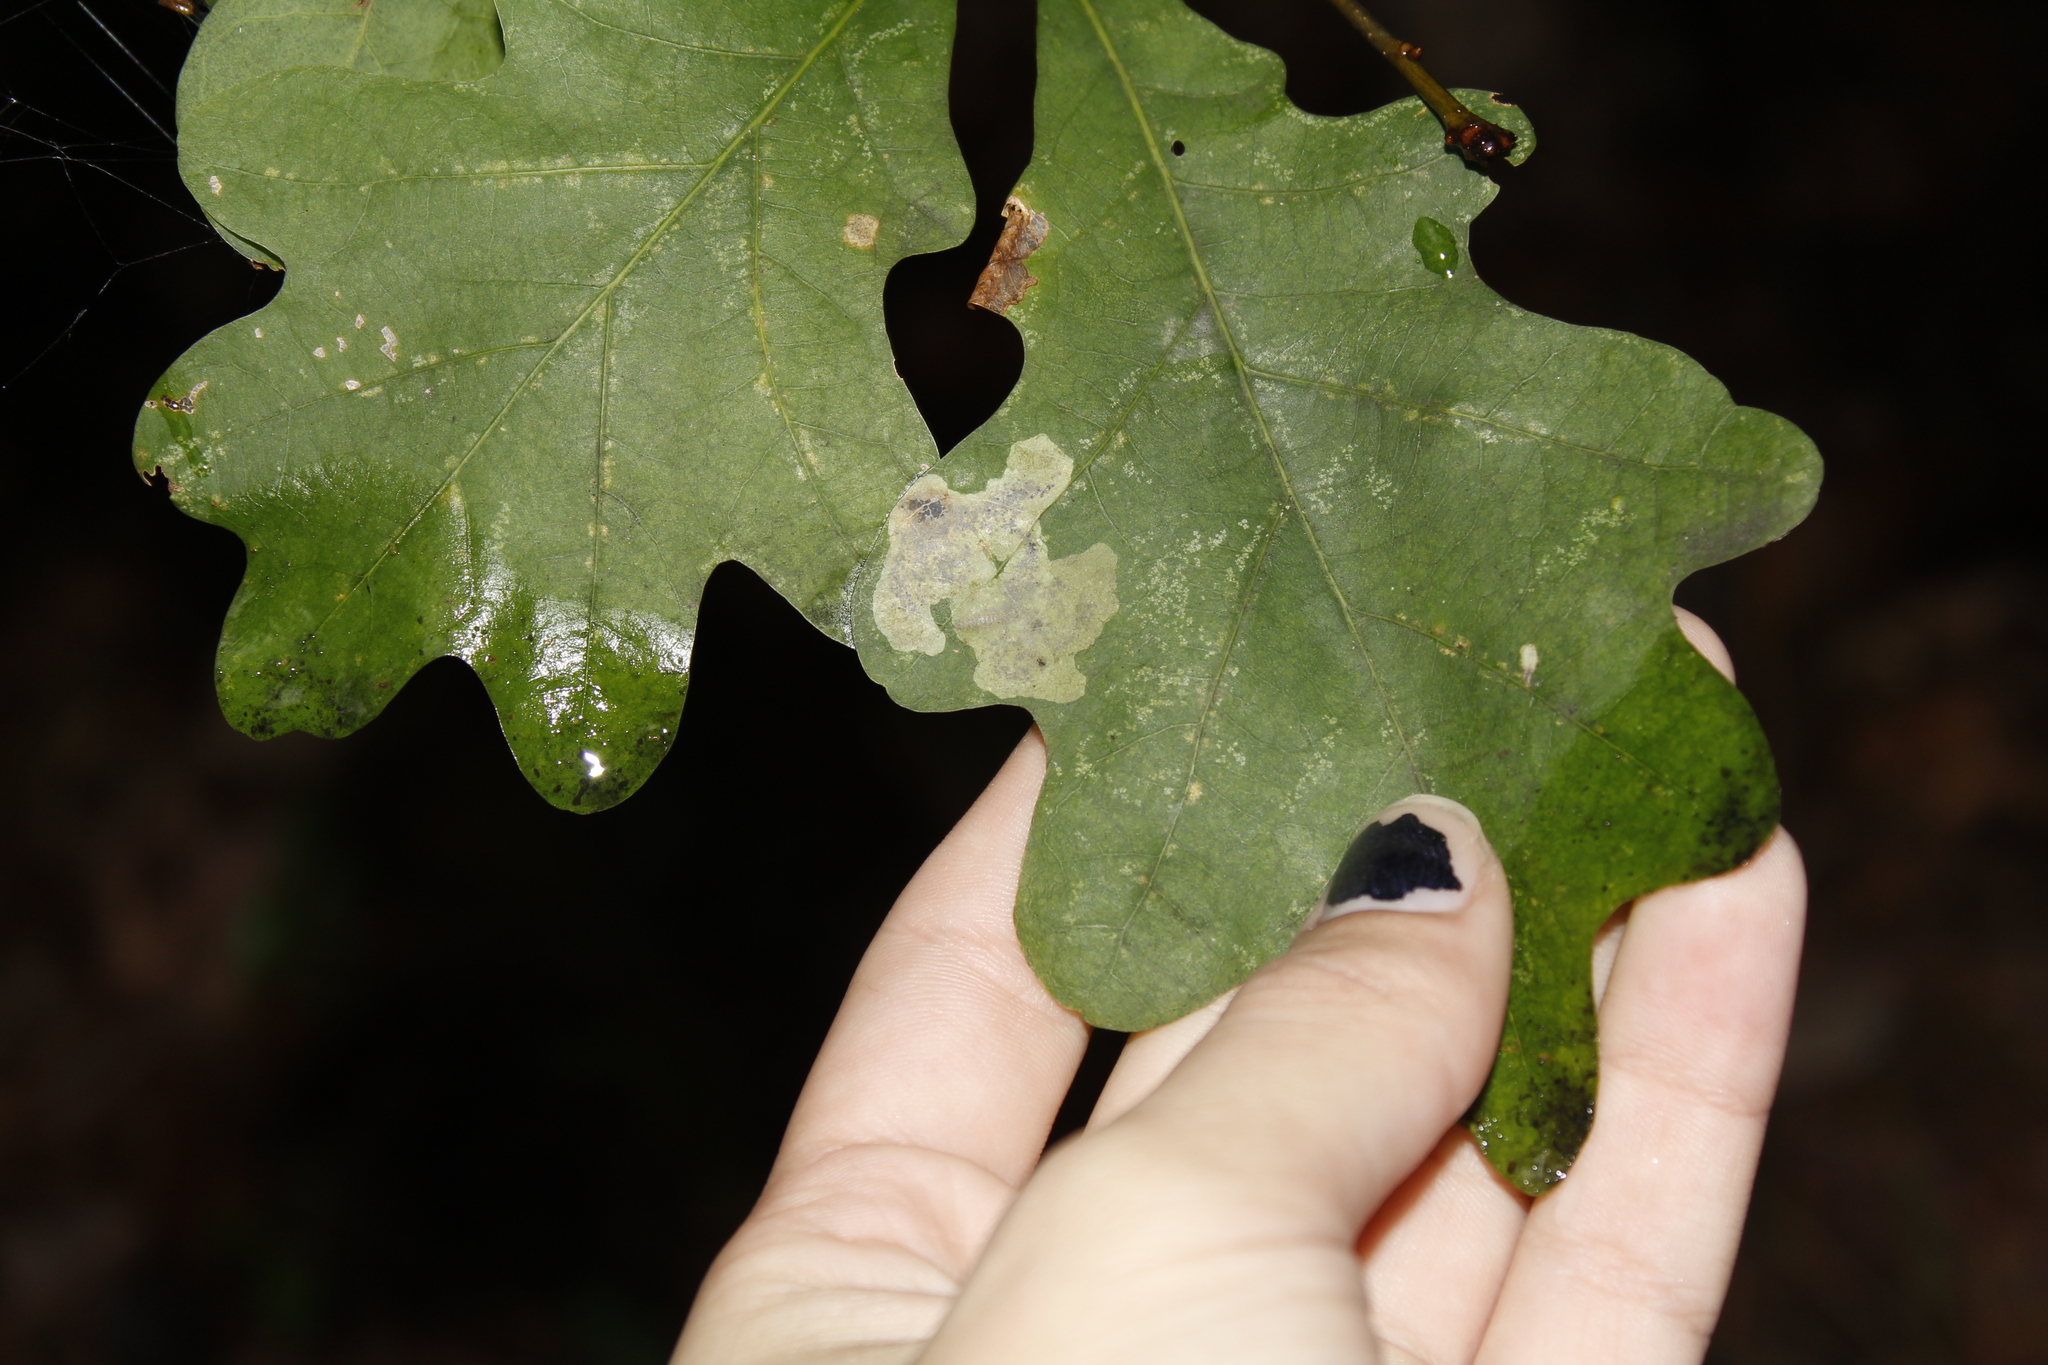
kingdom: Plantae
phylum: Tracheophyta
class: Magnoliopsida
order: Fagales
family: Fagaceae
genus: Quercus
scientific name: Quercus alba
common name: White oak
